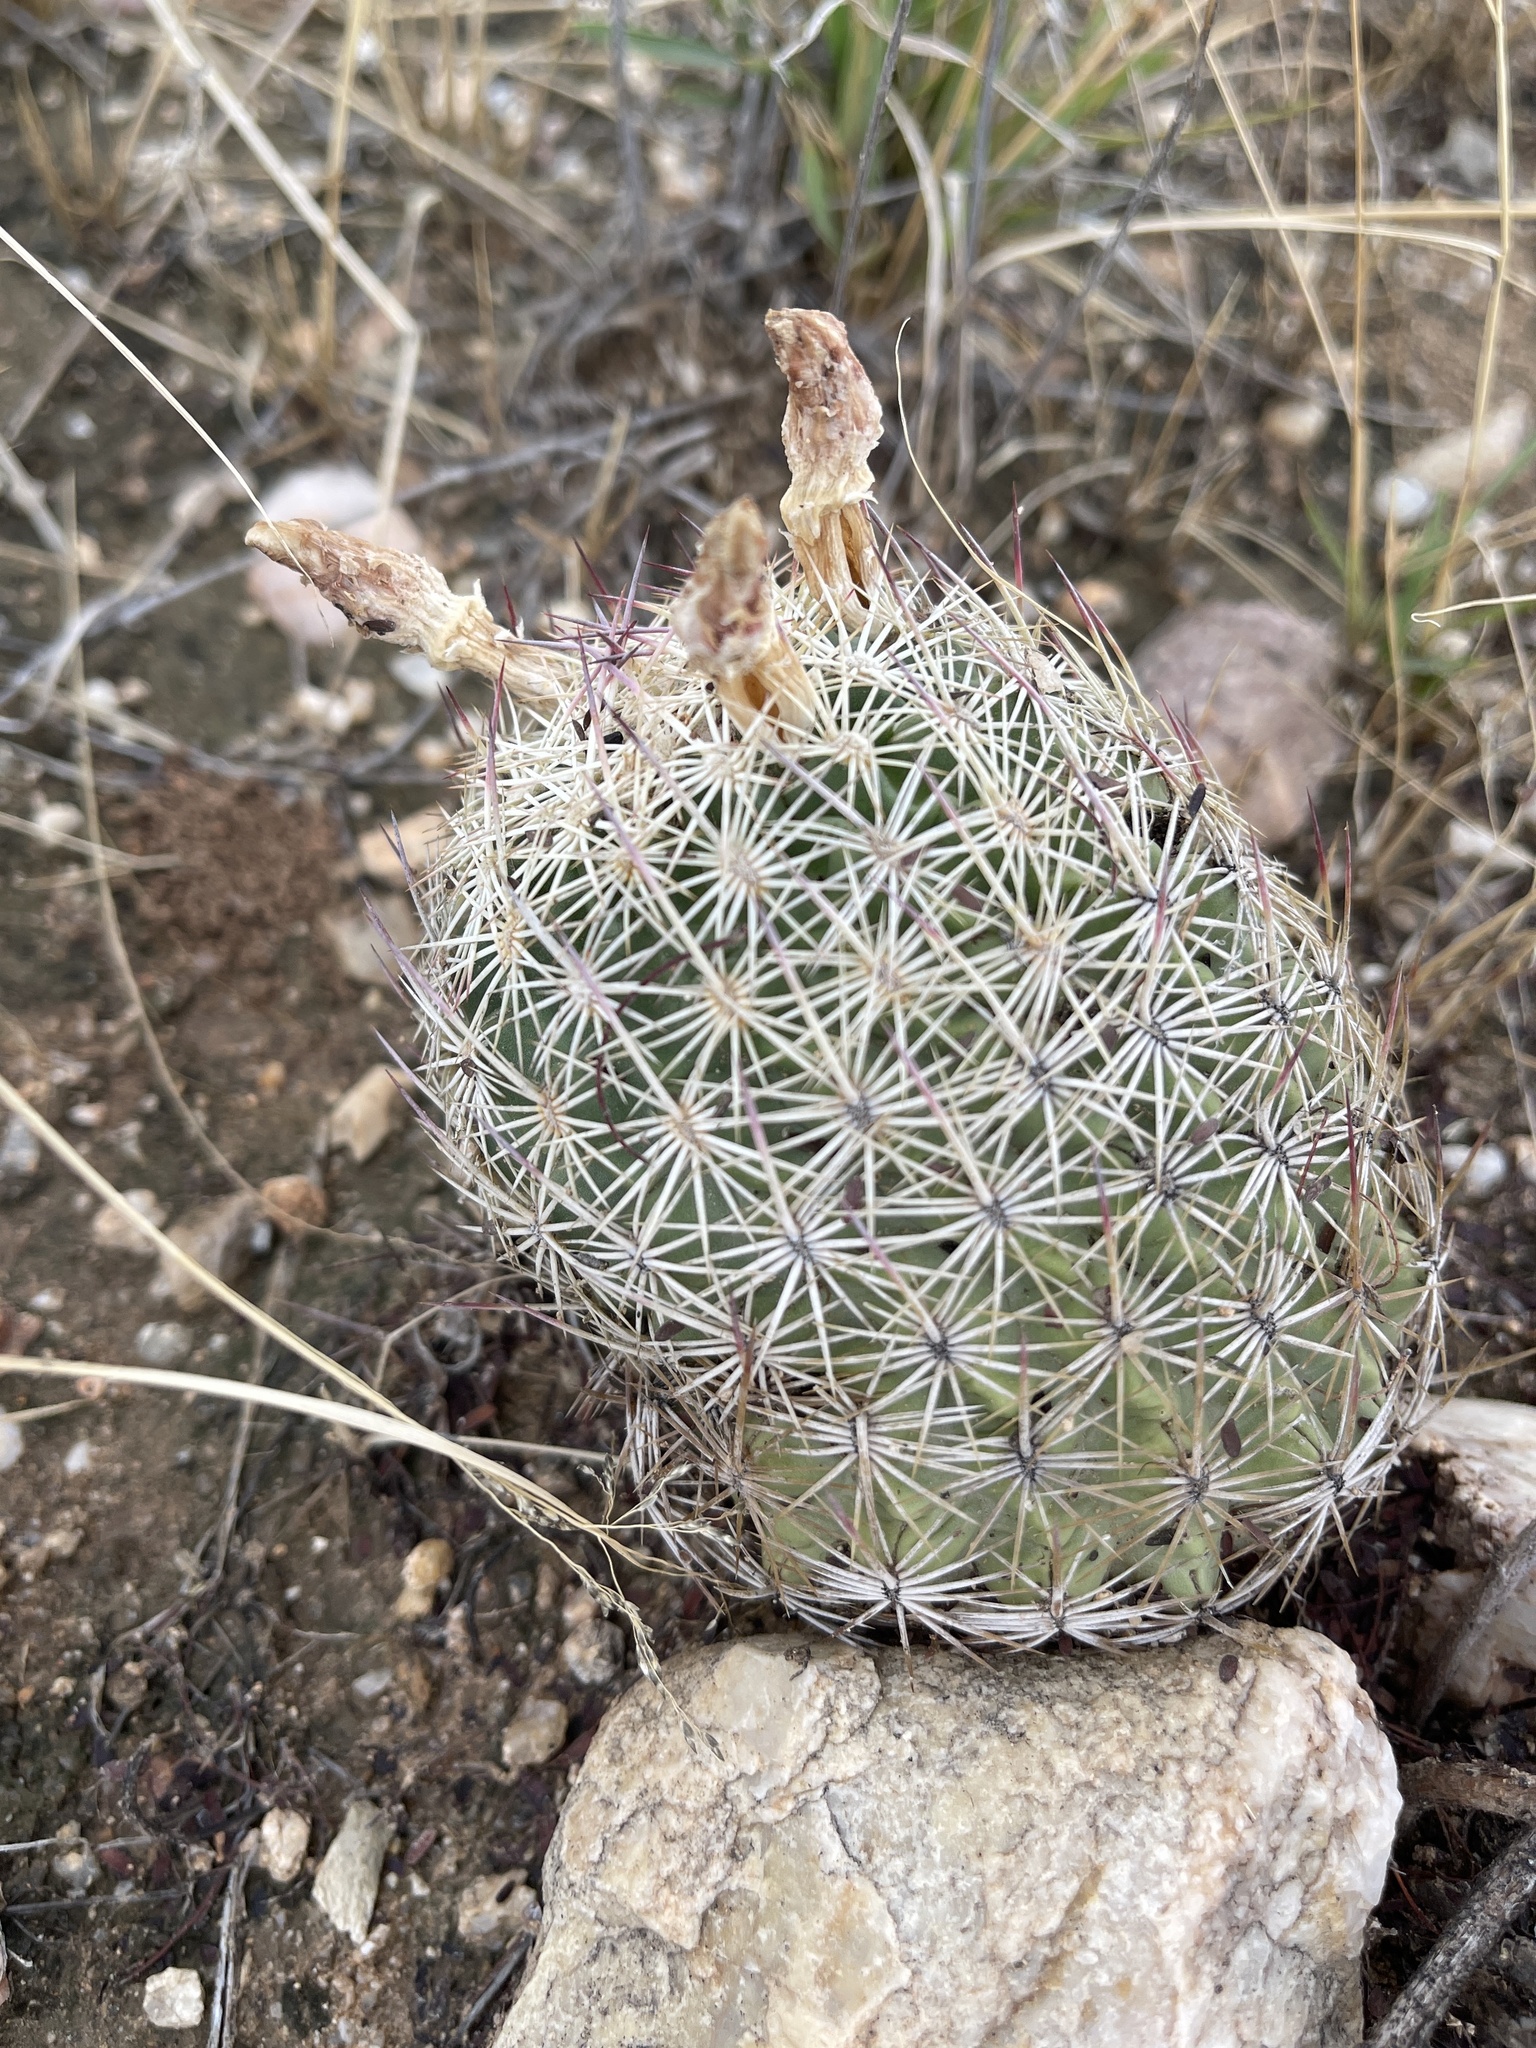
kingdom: Plantae
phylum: Tracheophyta
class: Magnoliopsida
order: Caryophyllales
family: Cactaceae
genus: Sclerocactus
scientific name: Sclerocactus johnsonii
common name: Eight-spine fishhook cactus
